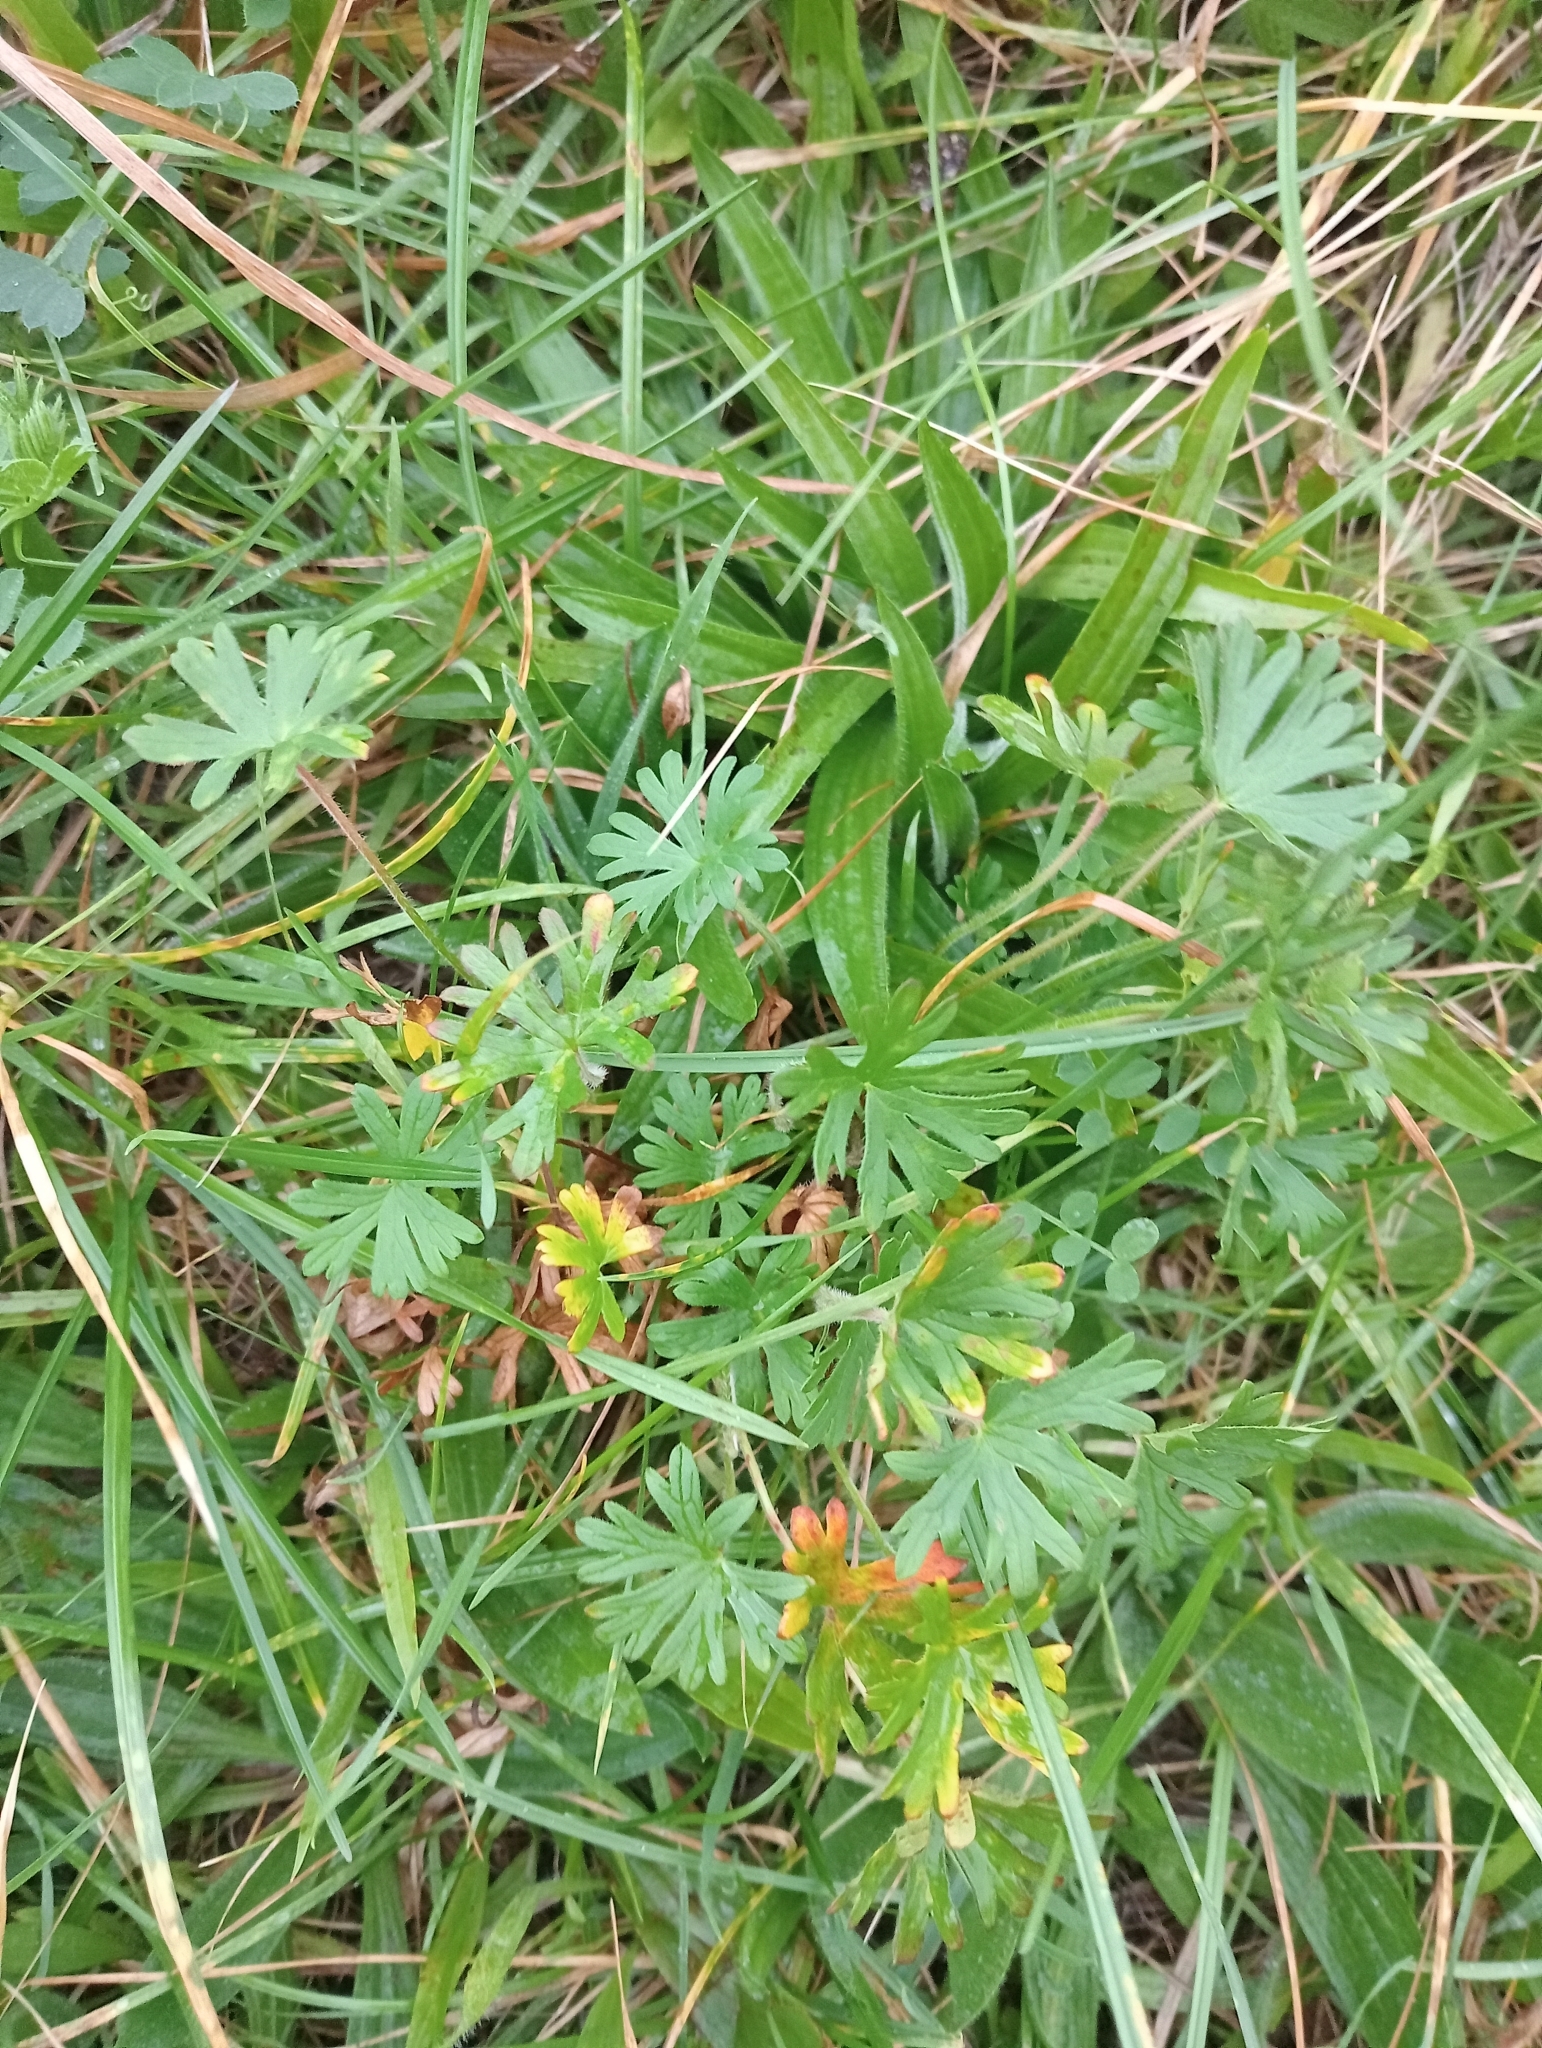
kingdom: Plantae
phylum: Tracheophyta
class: Magnoliopsida
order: Geraniales
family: Geraniaceae
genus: Geranium
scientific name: Geranium solanderi
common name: Solander's geranium
